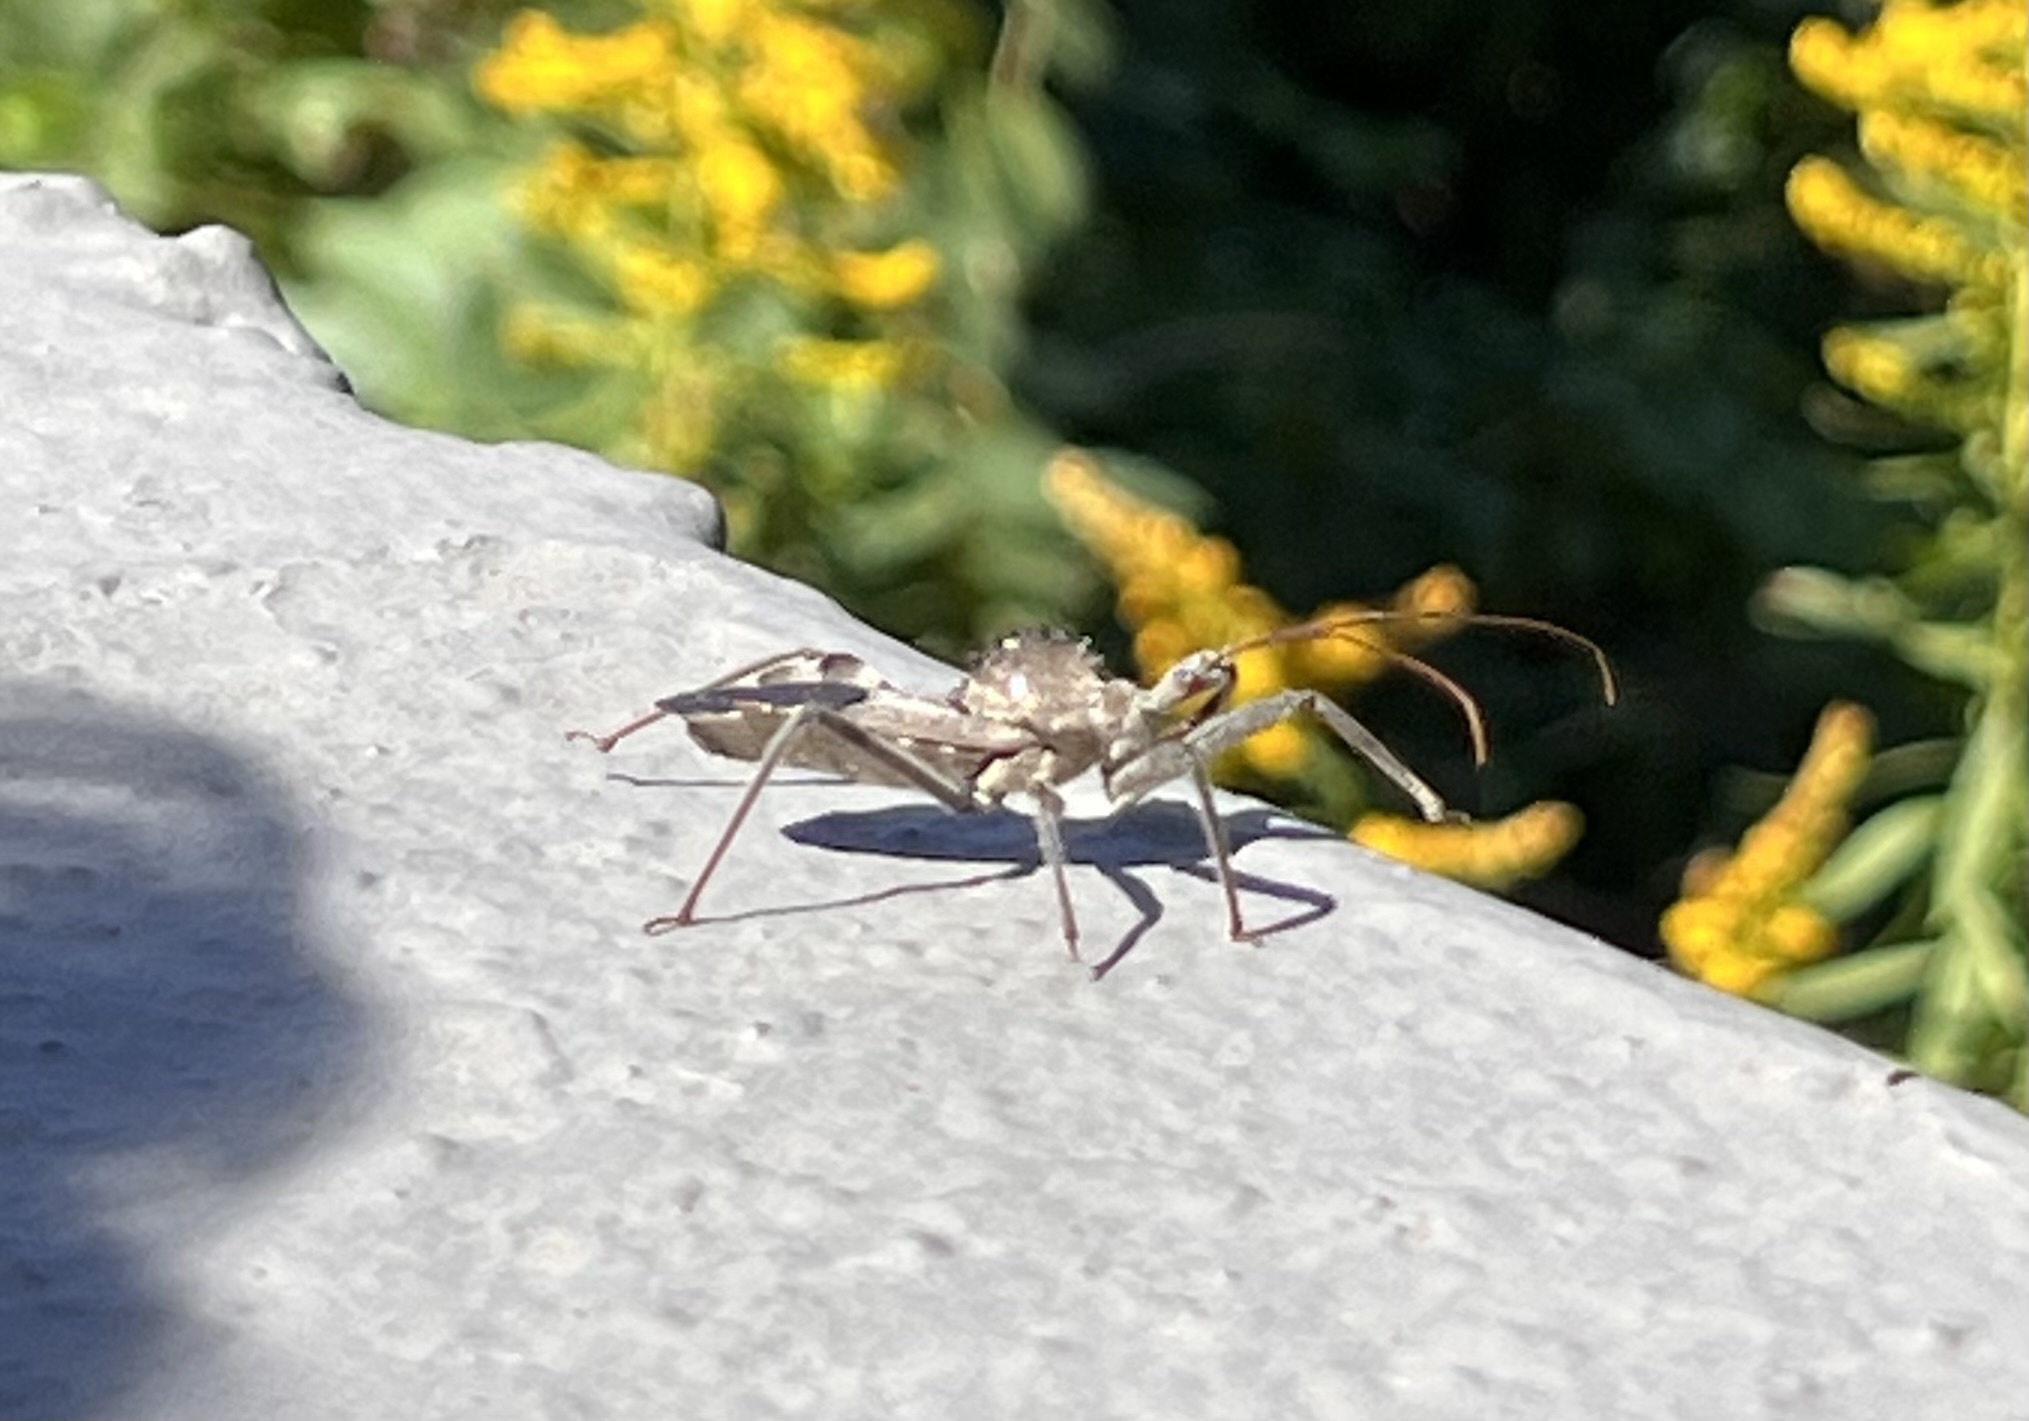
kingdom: Animalia
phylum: Arthropoda
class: Insecta
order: Hemiptera
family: Reduviidae
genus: Arilus
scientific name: Arilus cristatus
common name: North american wheel bug
